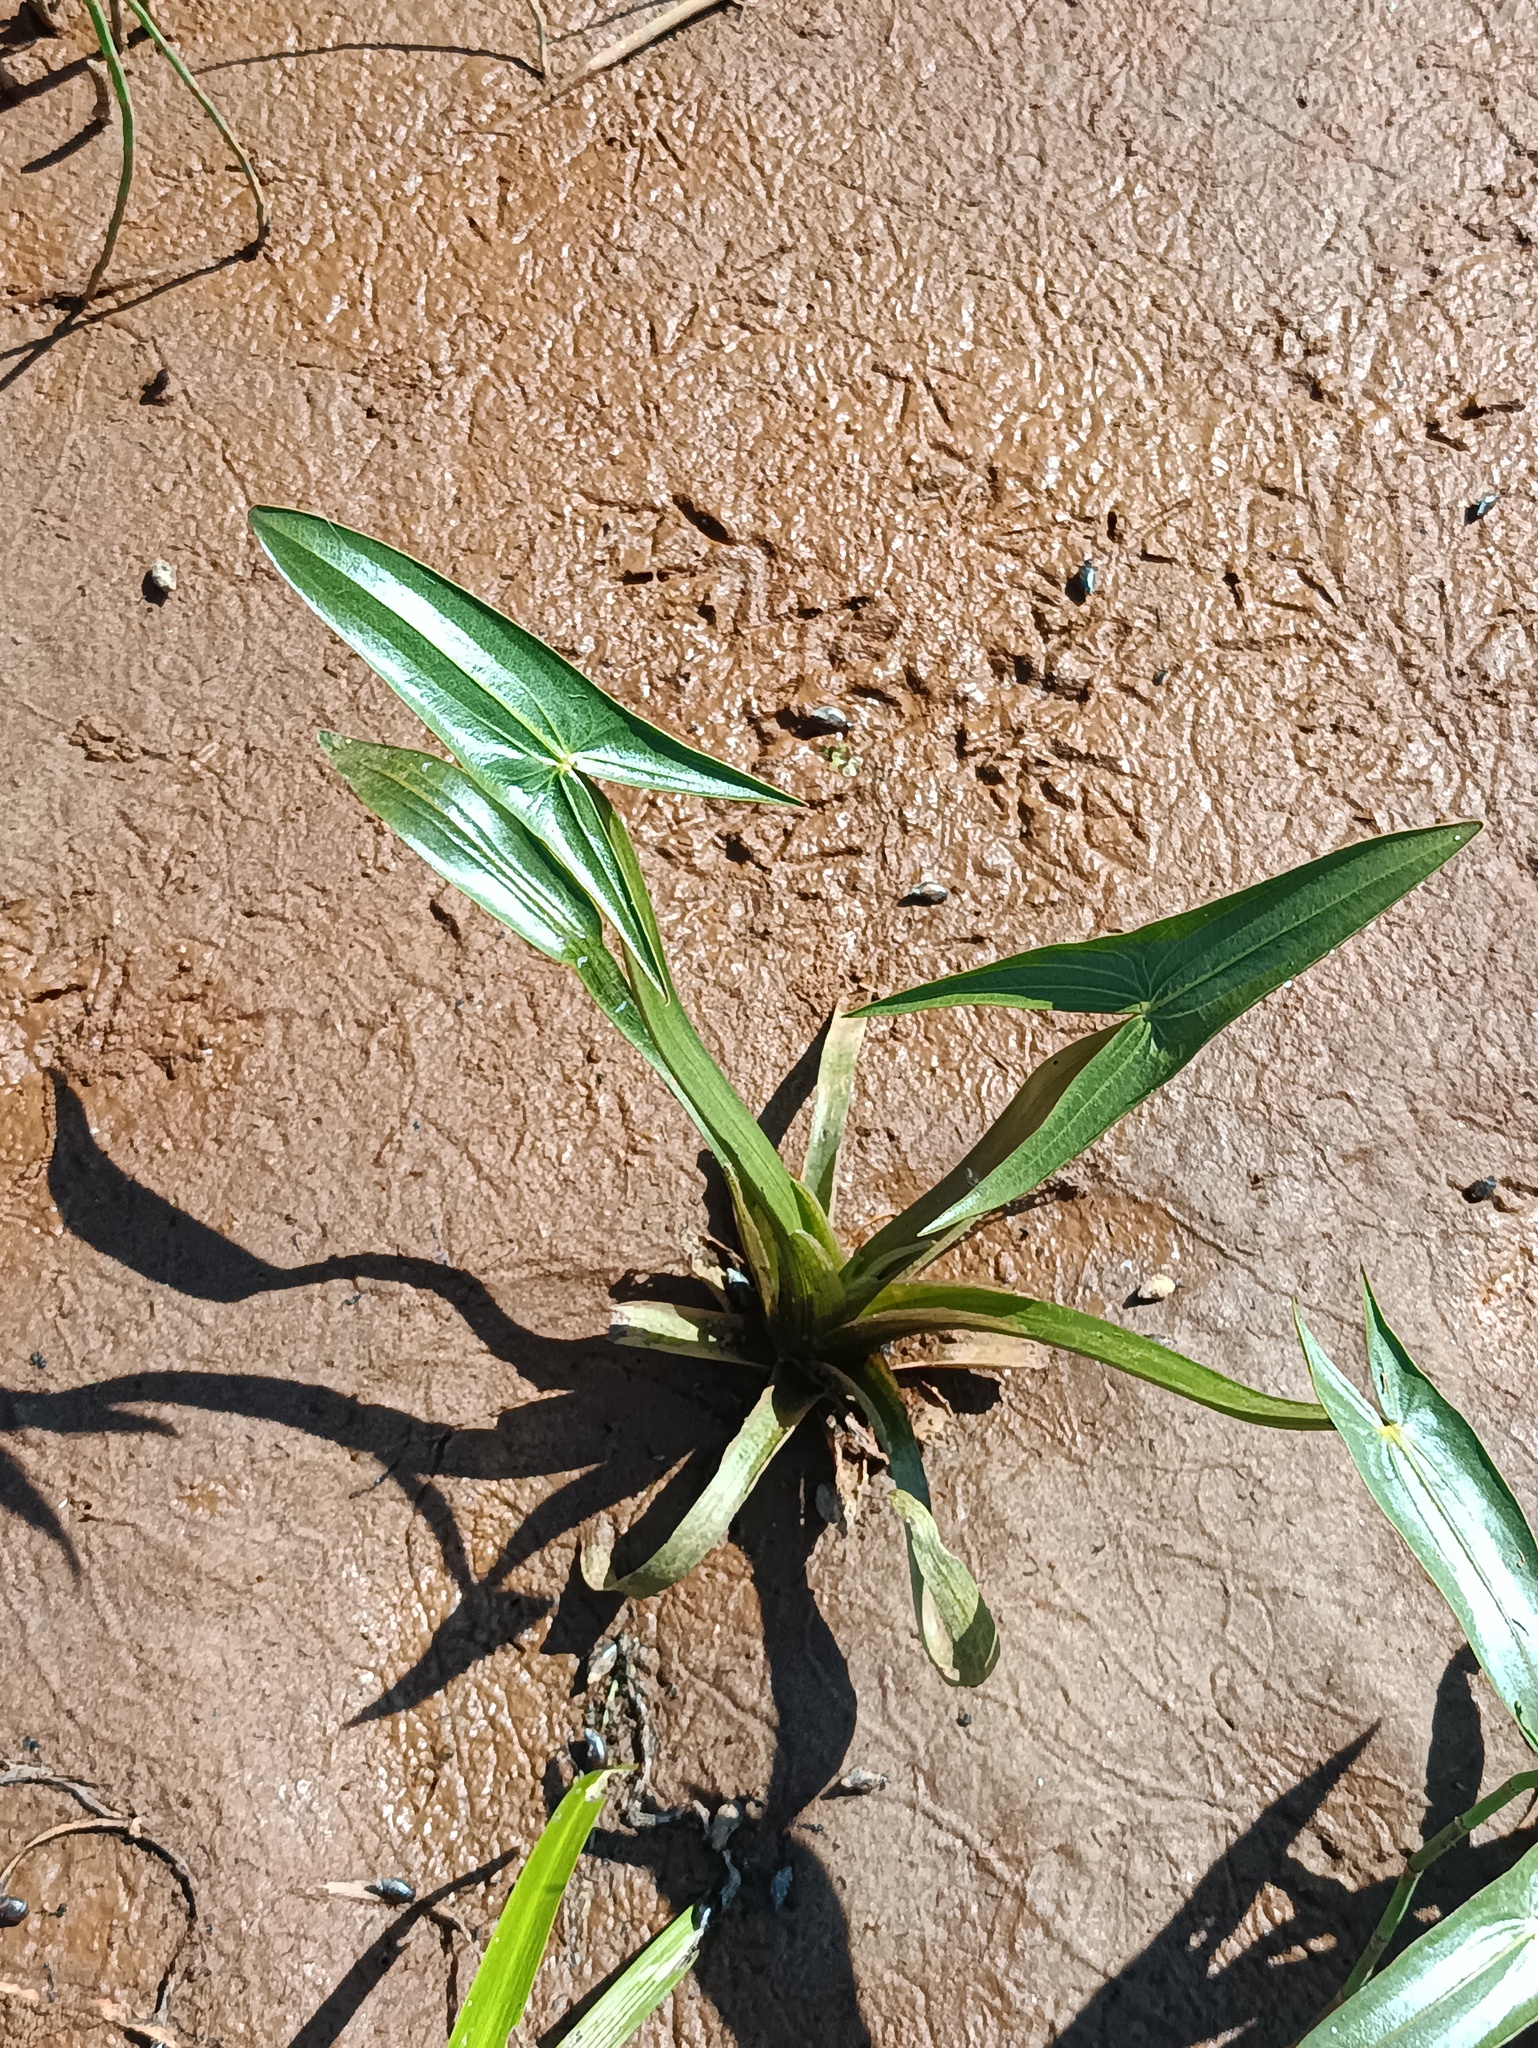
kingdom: Plantae
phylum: Tracheophyta
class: Liliopsida
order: Alismatales
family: Alismataceae
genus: Sagittaria
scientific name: Sagittaria sagittifolia
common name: Arrowhead
